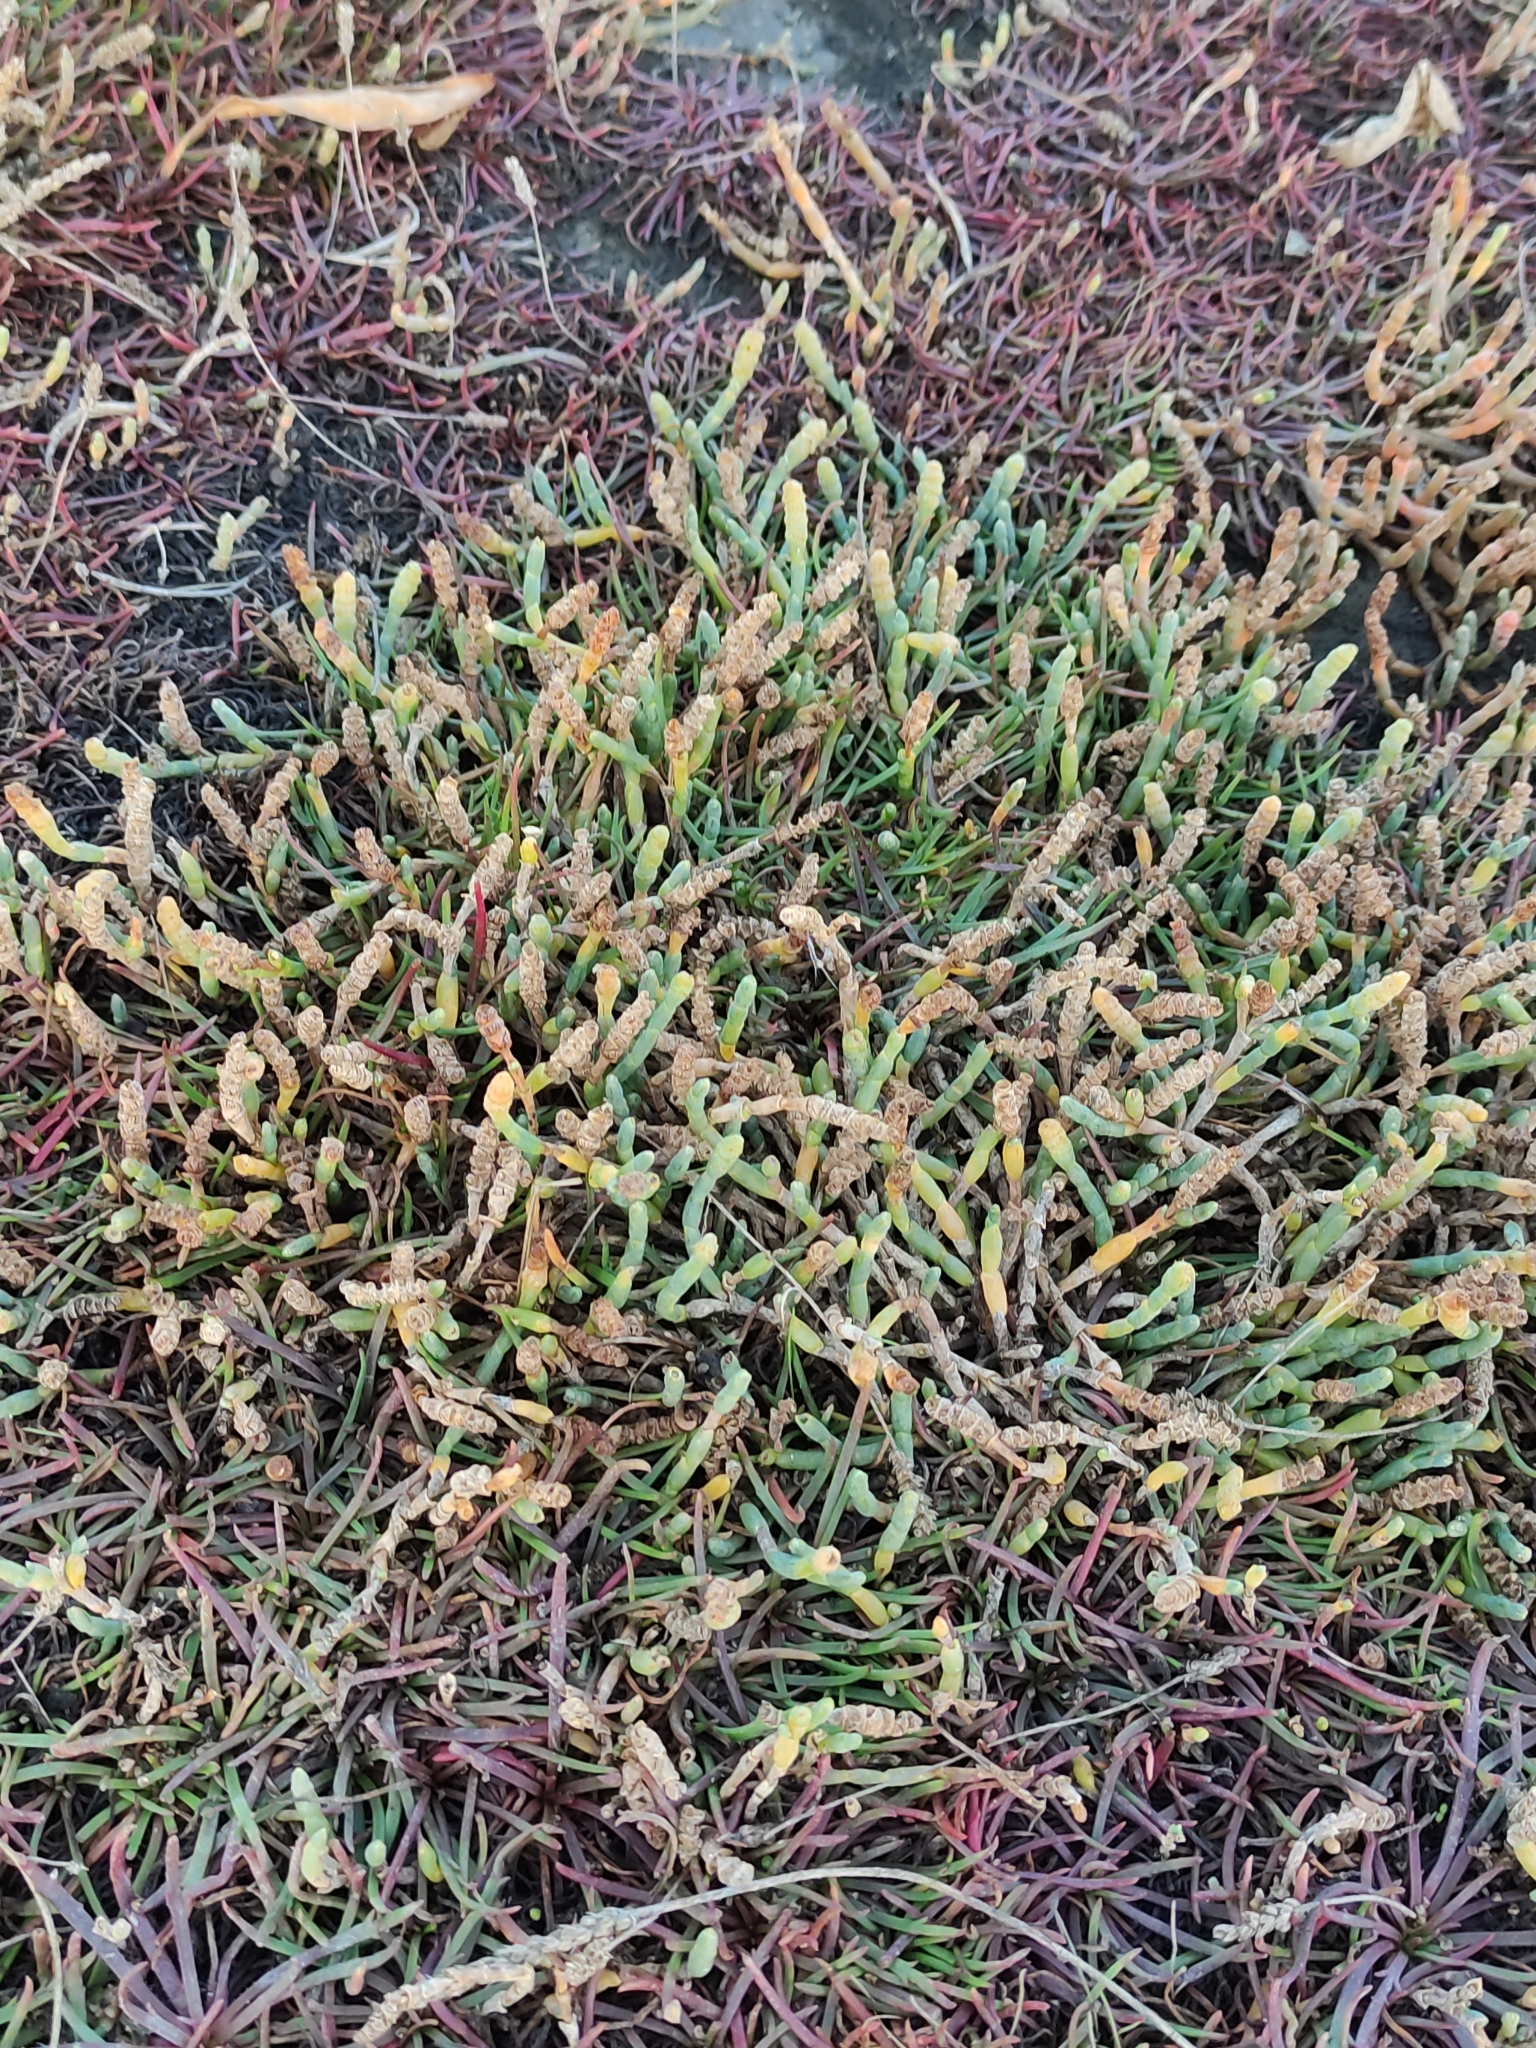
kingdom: Plantae
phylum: Tracheophyta
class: Magnoliopsida
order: Caryophyllales
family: Amaranthaceae
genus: Salicornia
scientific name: Salicornia quinqueflora
